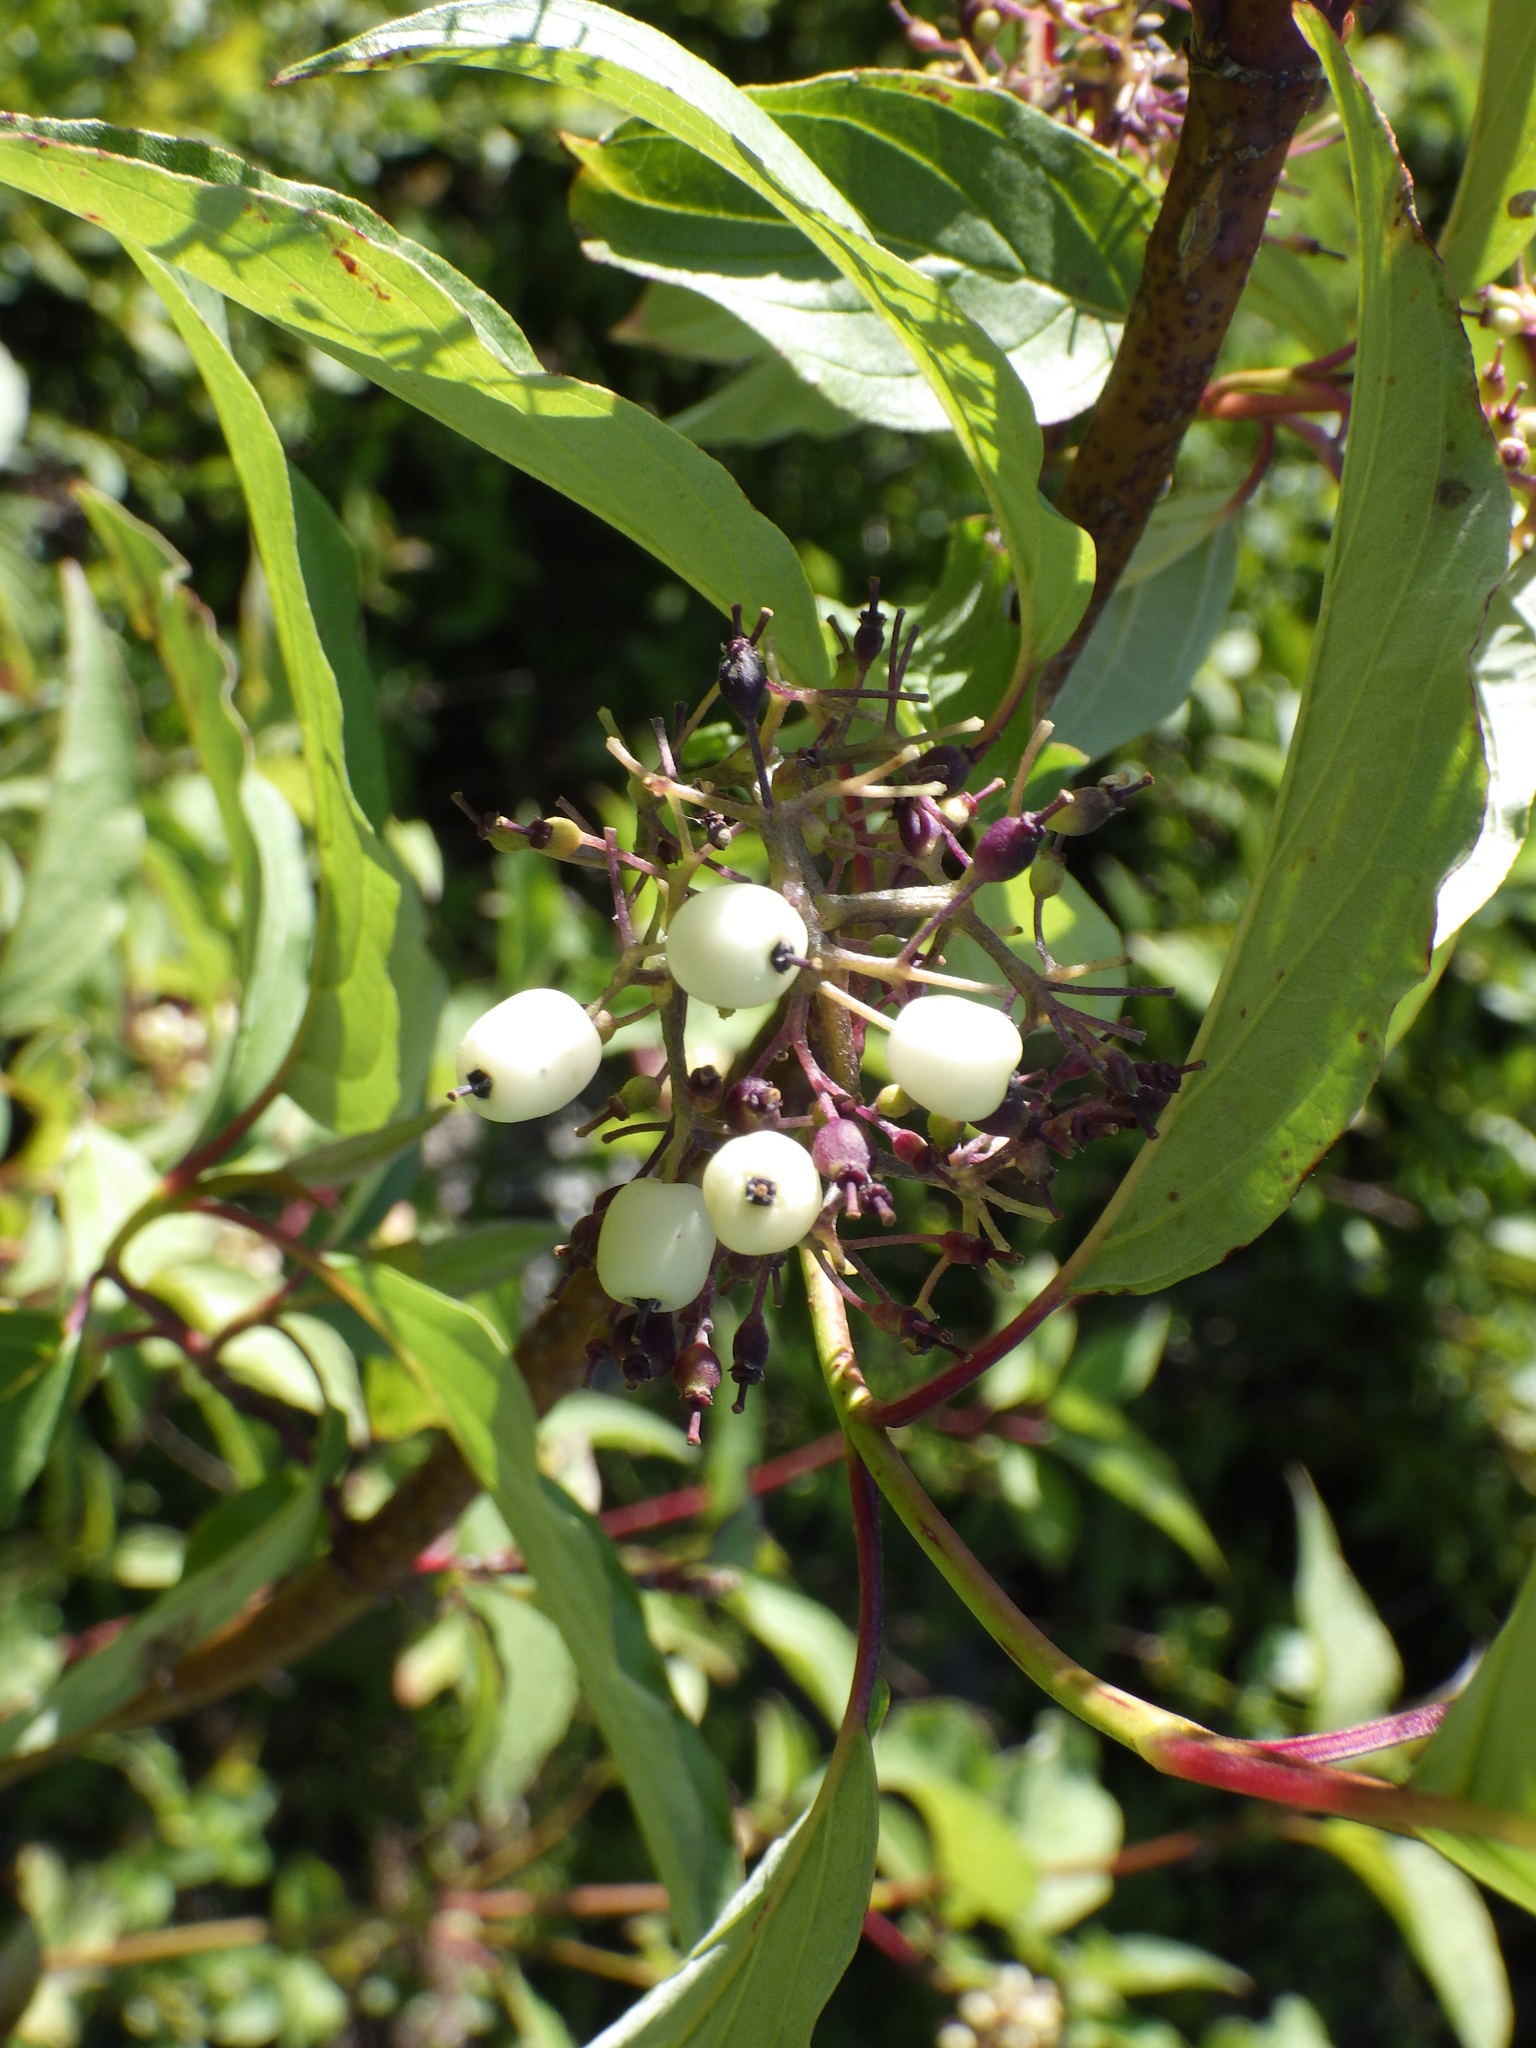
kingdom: Plantae
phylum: Tracheophyta
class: Magnoliopsida
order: Cornales
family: Cornaceae
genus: Cornus
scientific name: Cornus sericea
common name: Red-osier dogwood
